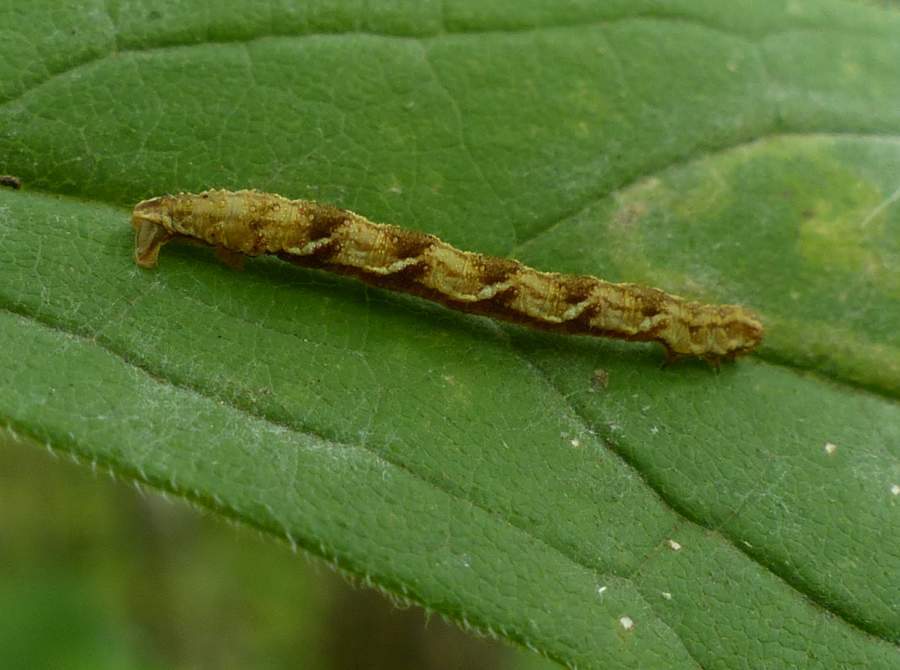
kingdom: Animalia
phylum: Arthropoda
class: Insecta
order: Lepidoptera
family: Geometridae
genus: Pleuroprucha
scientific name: Pleuroprucha insulsaria
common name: Common tan wave
